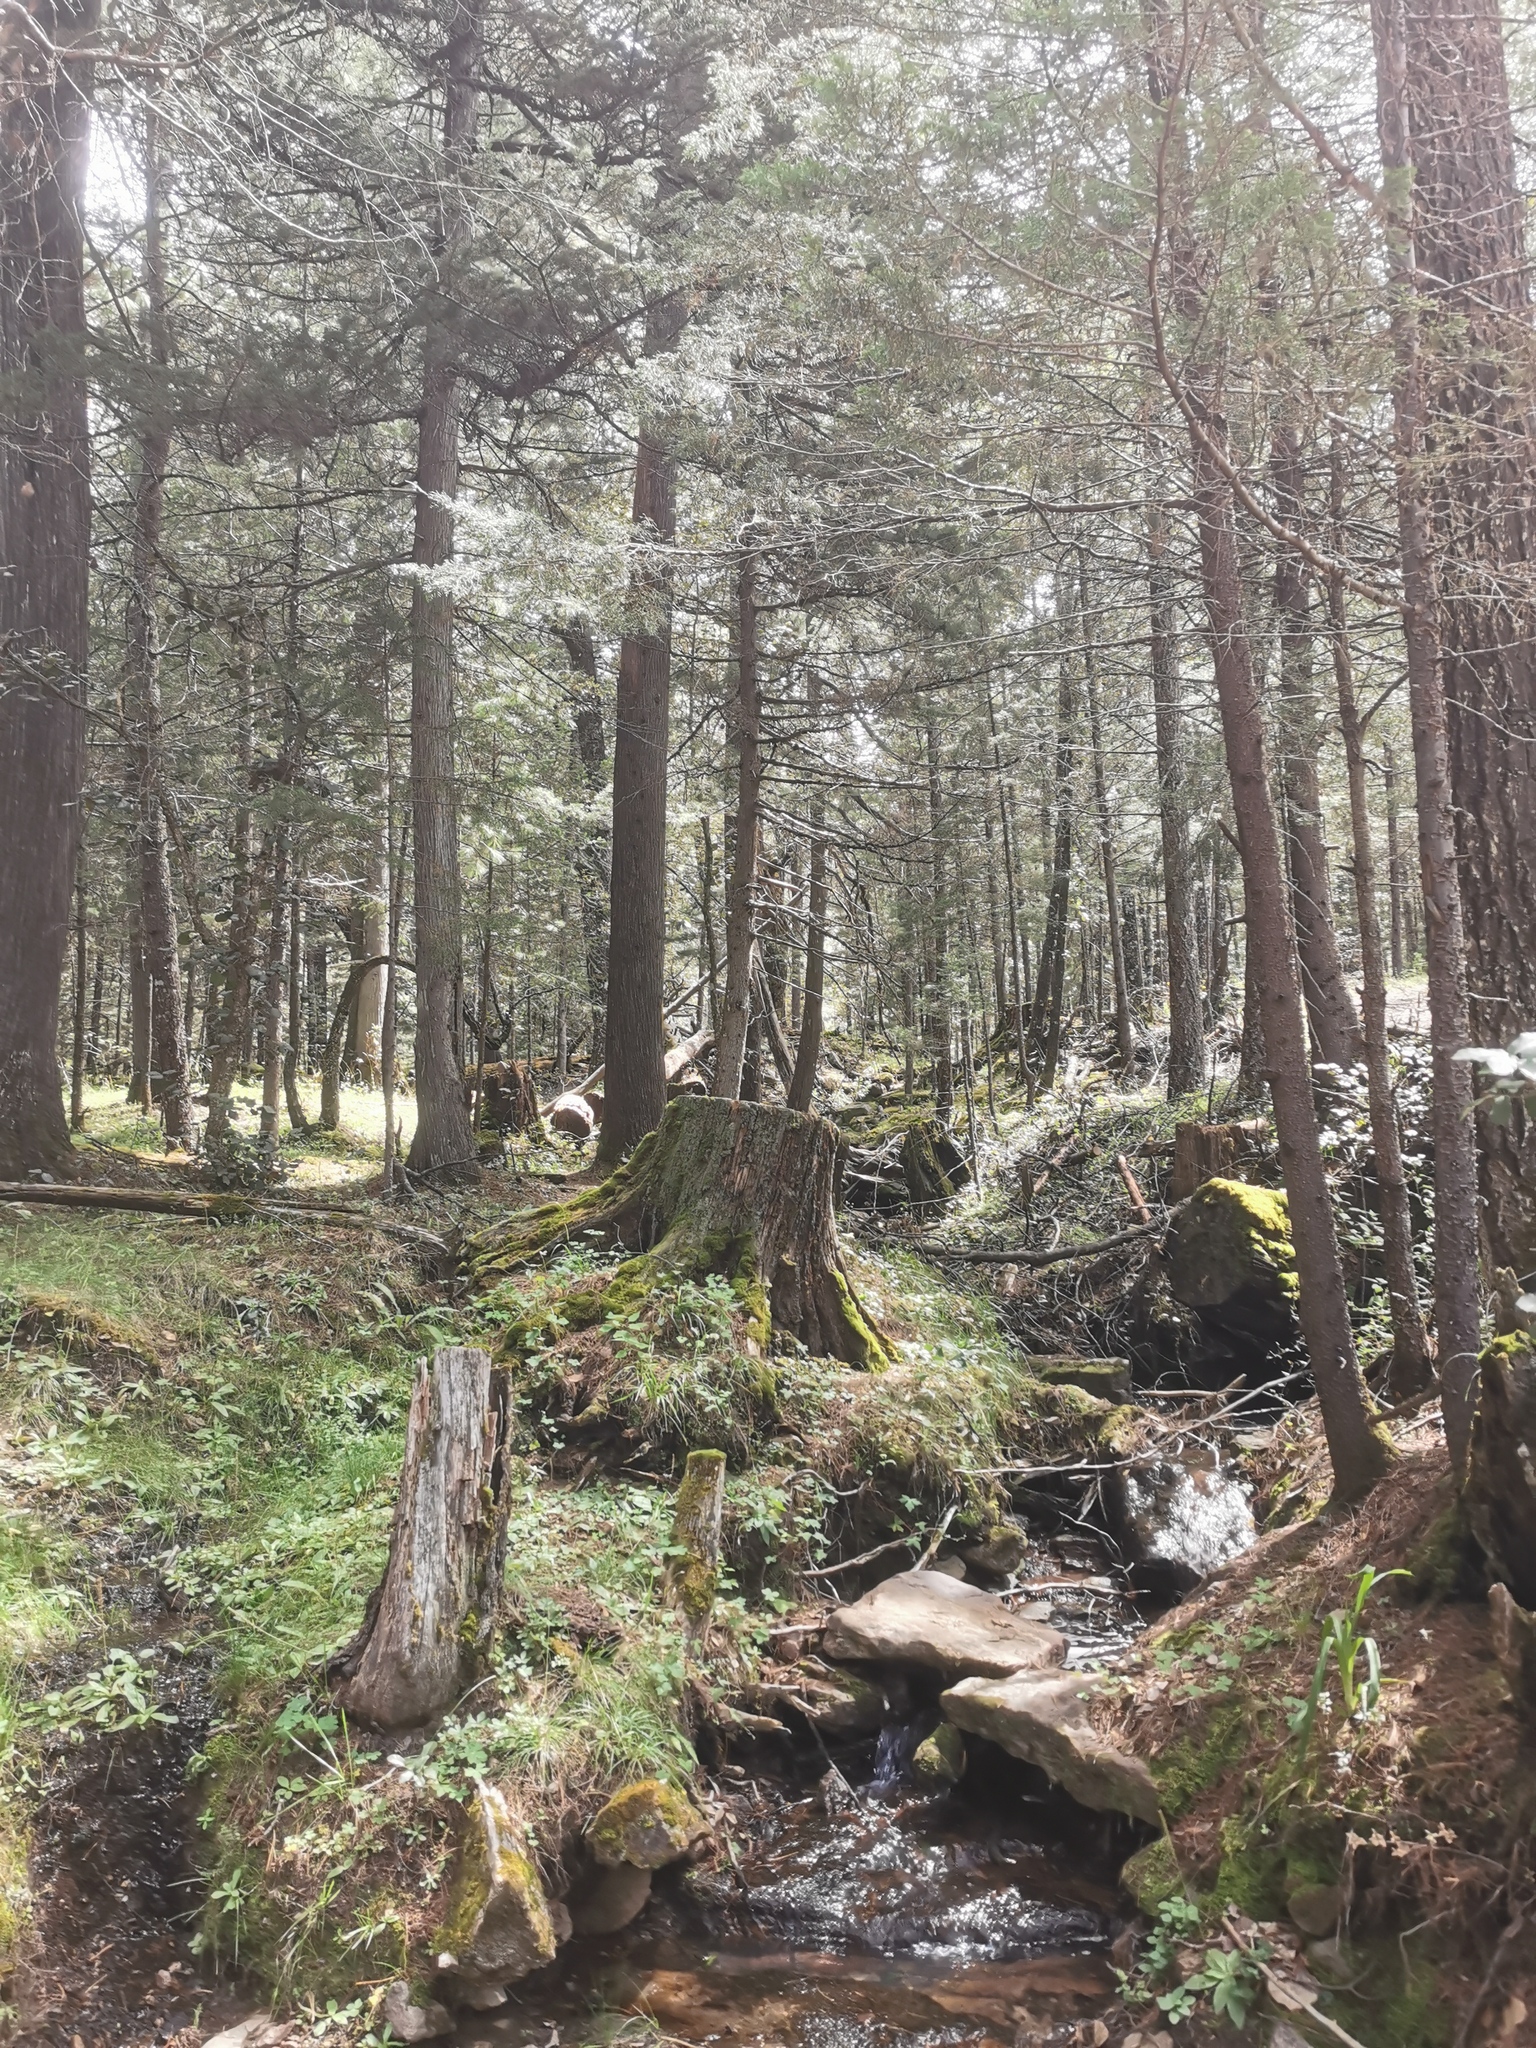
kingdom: Plantae
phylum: Tracheophyta
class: Pinopsida
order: Pinales
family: Cupressaceae
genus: Cupressus
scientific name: Cupressus lusitanica
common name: Mexican cypress
